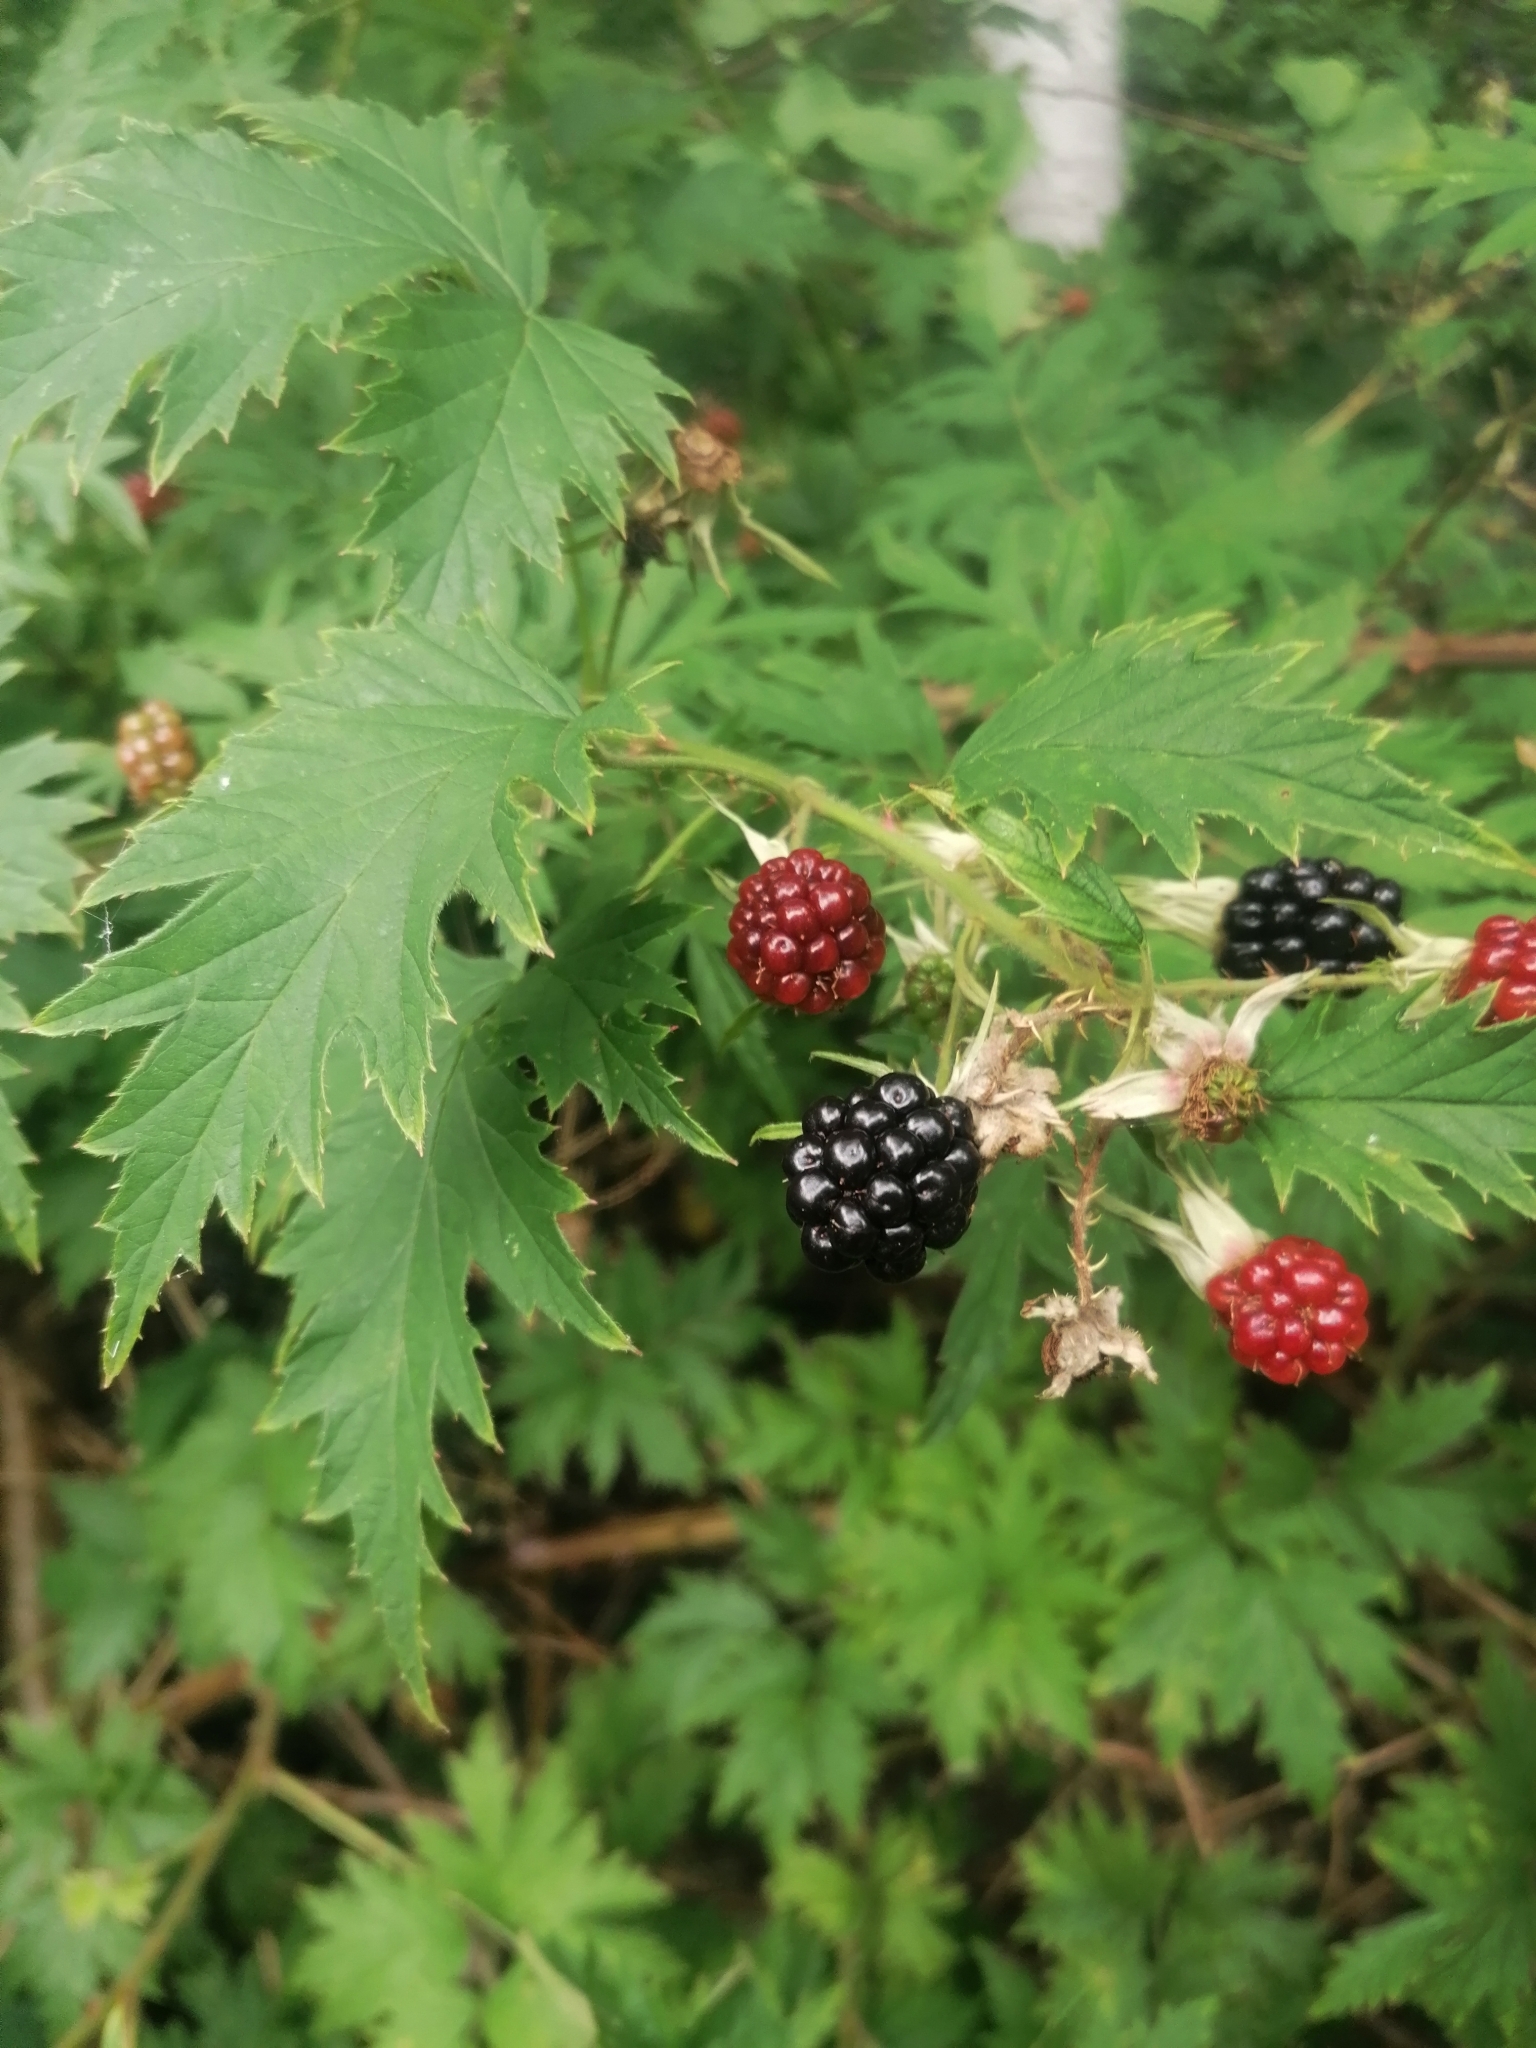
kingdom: Plantae
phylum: Tracheophyta
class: Magnoliopsida
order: Rosales
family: Rosaceae
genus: Rubus
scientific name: Rubus laciniatus
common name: Evergreen blackberry
